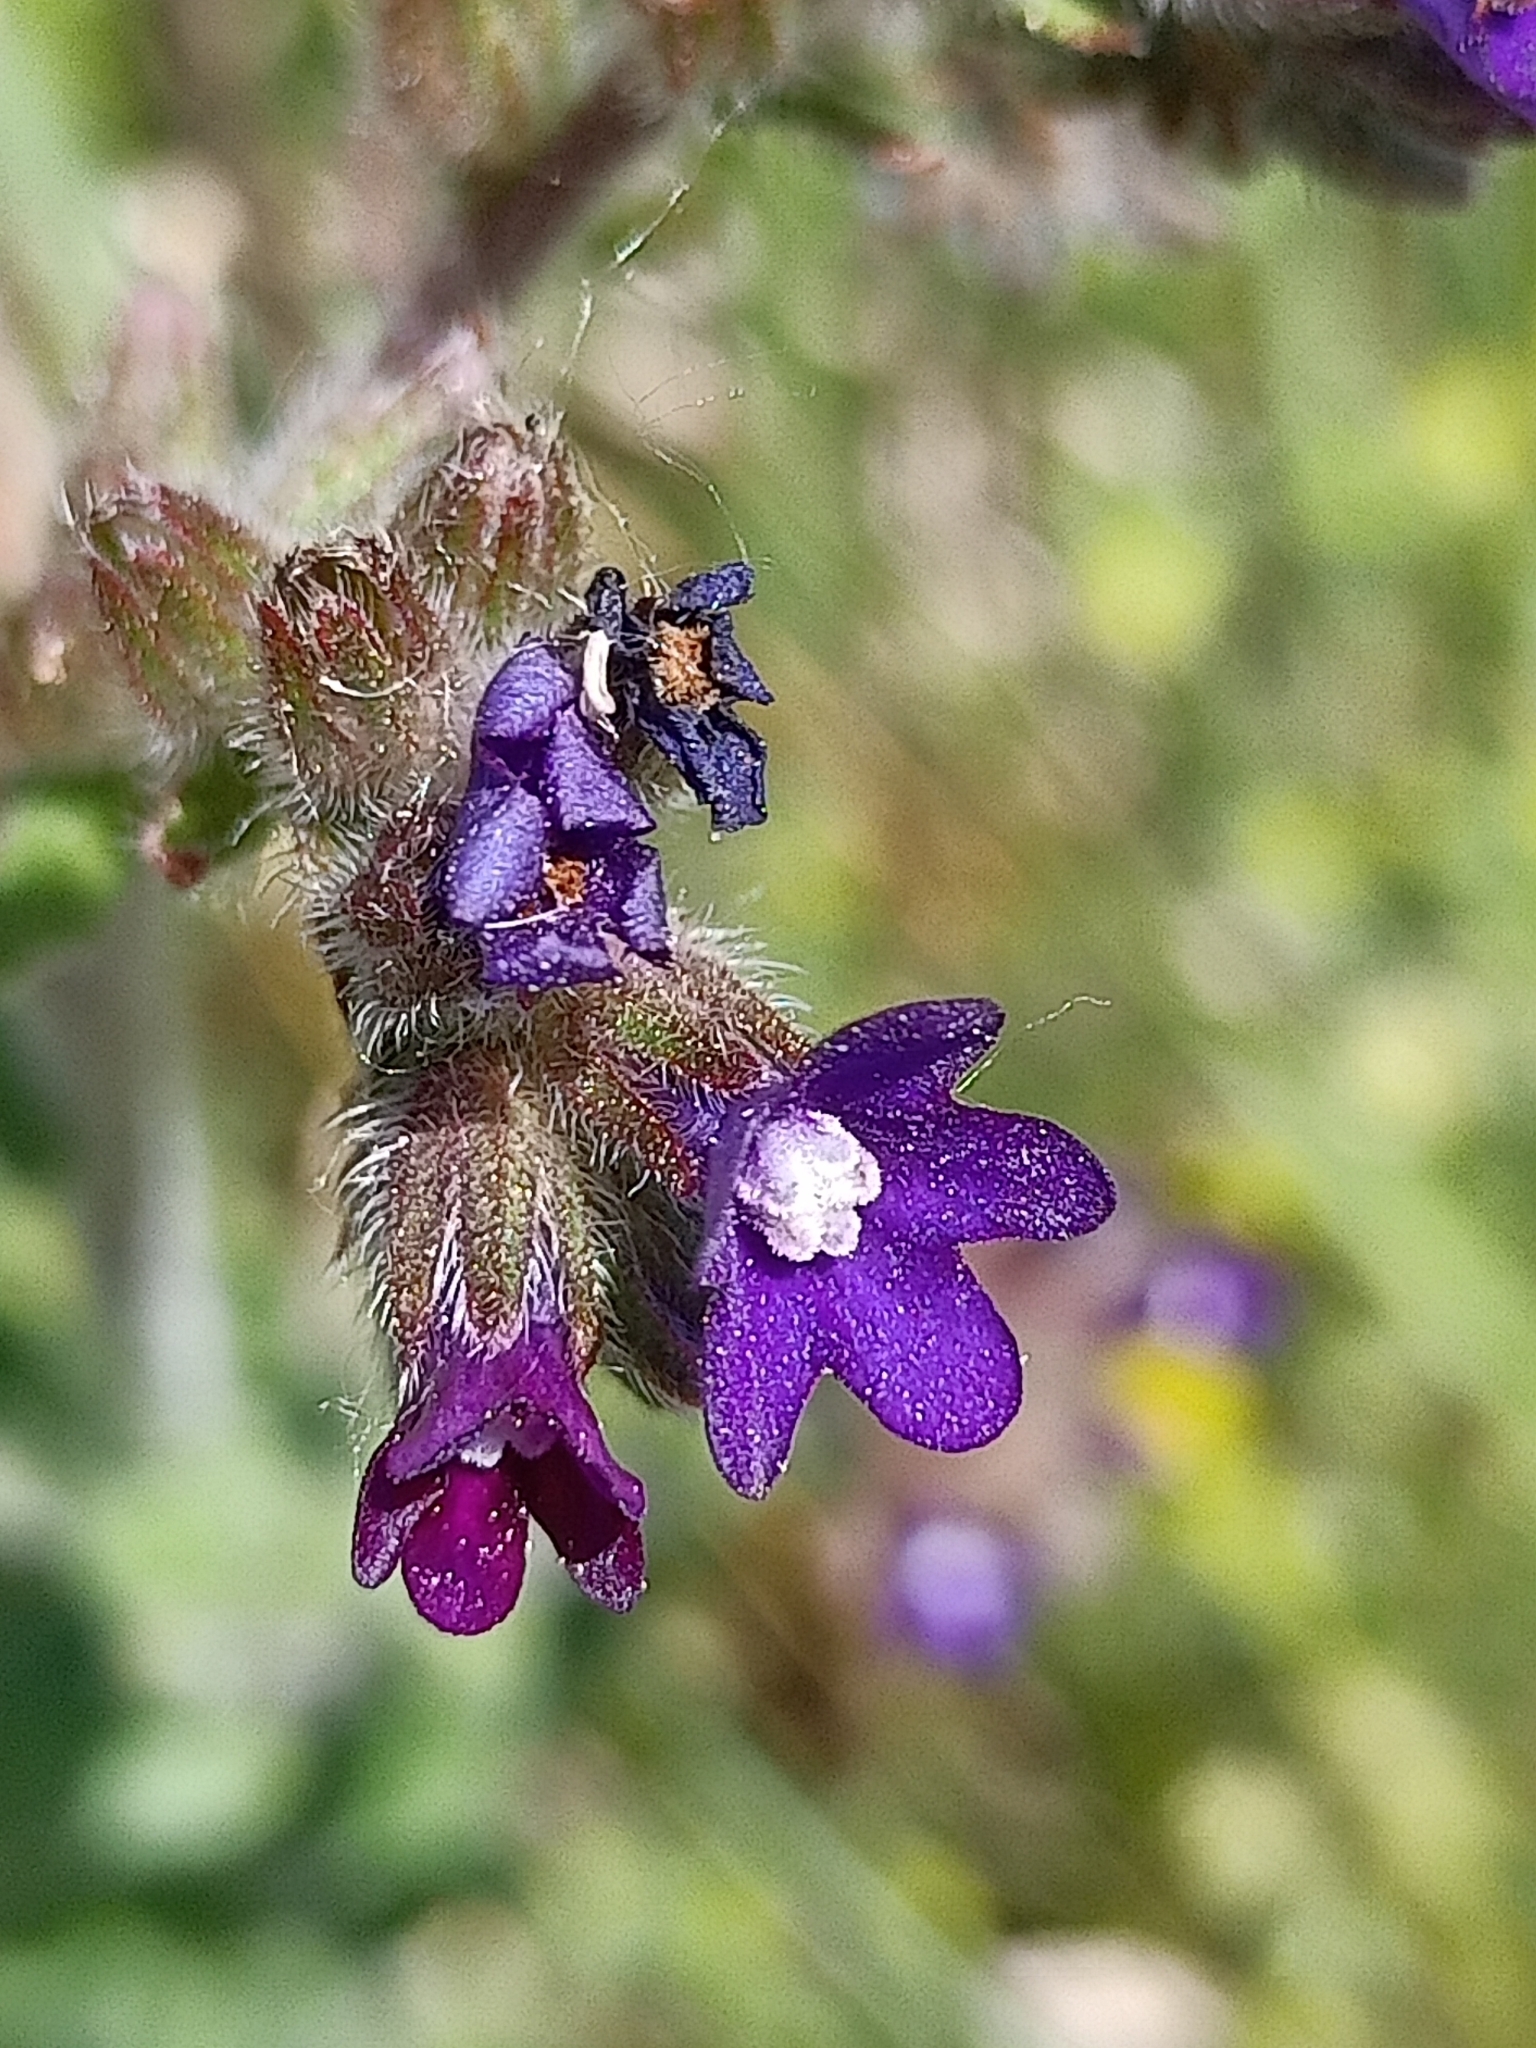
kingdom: Plantae
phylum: Tracheophyta
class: Magnoliopsida
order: Boraginales
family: Boraginaceae
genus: Anchusa
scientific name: Anchusa officinalis
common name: Alkanet
